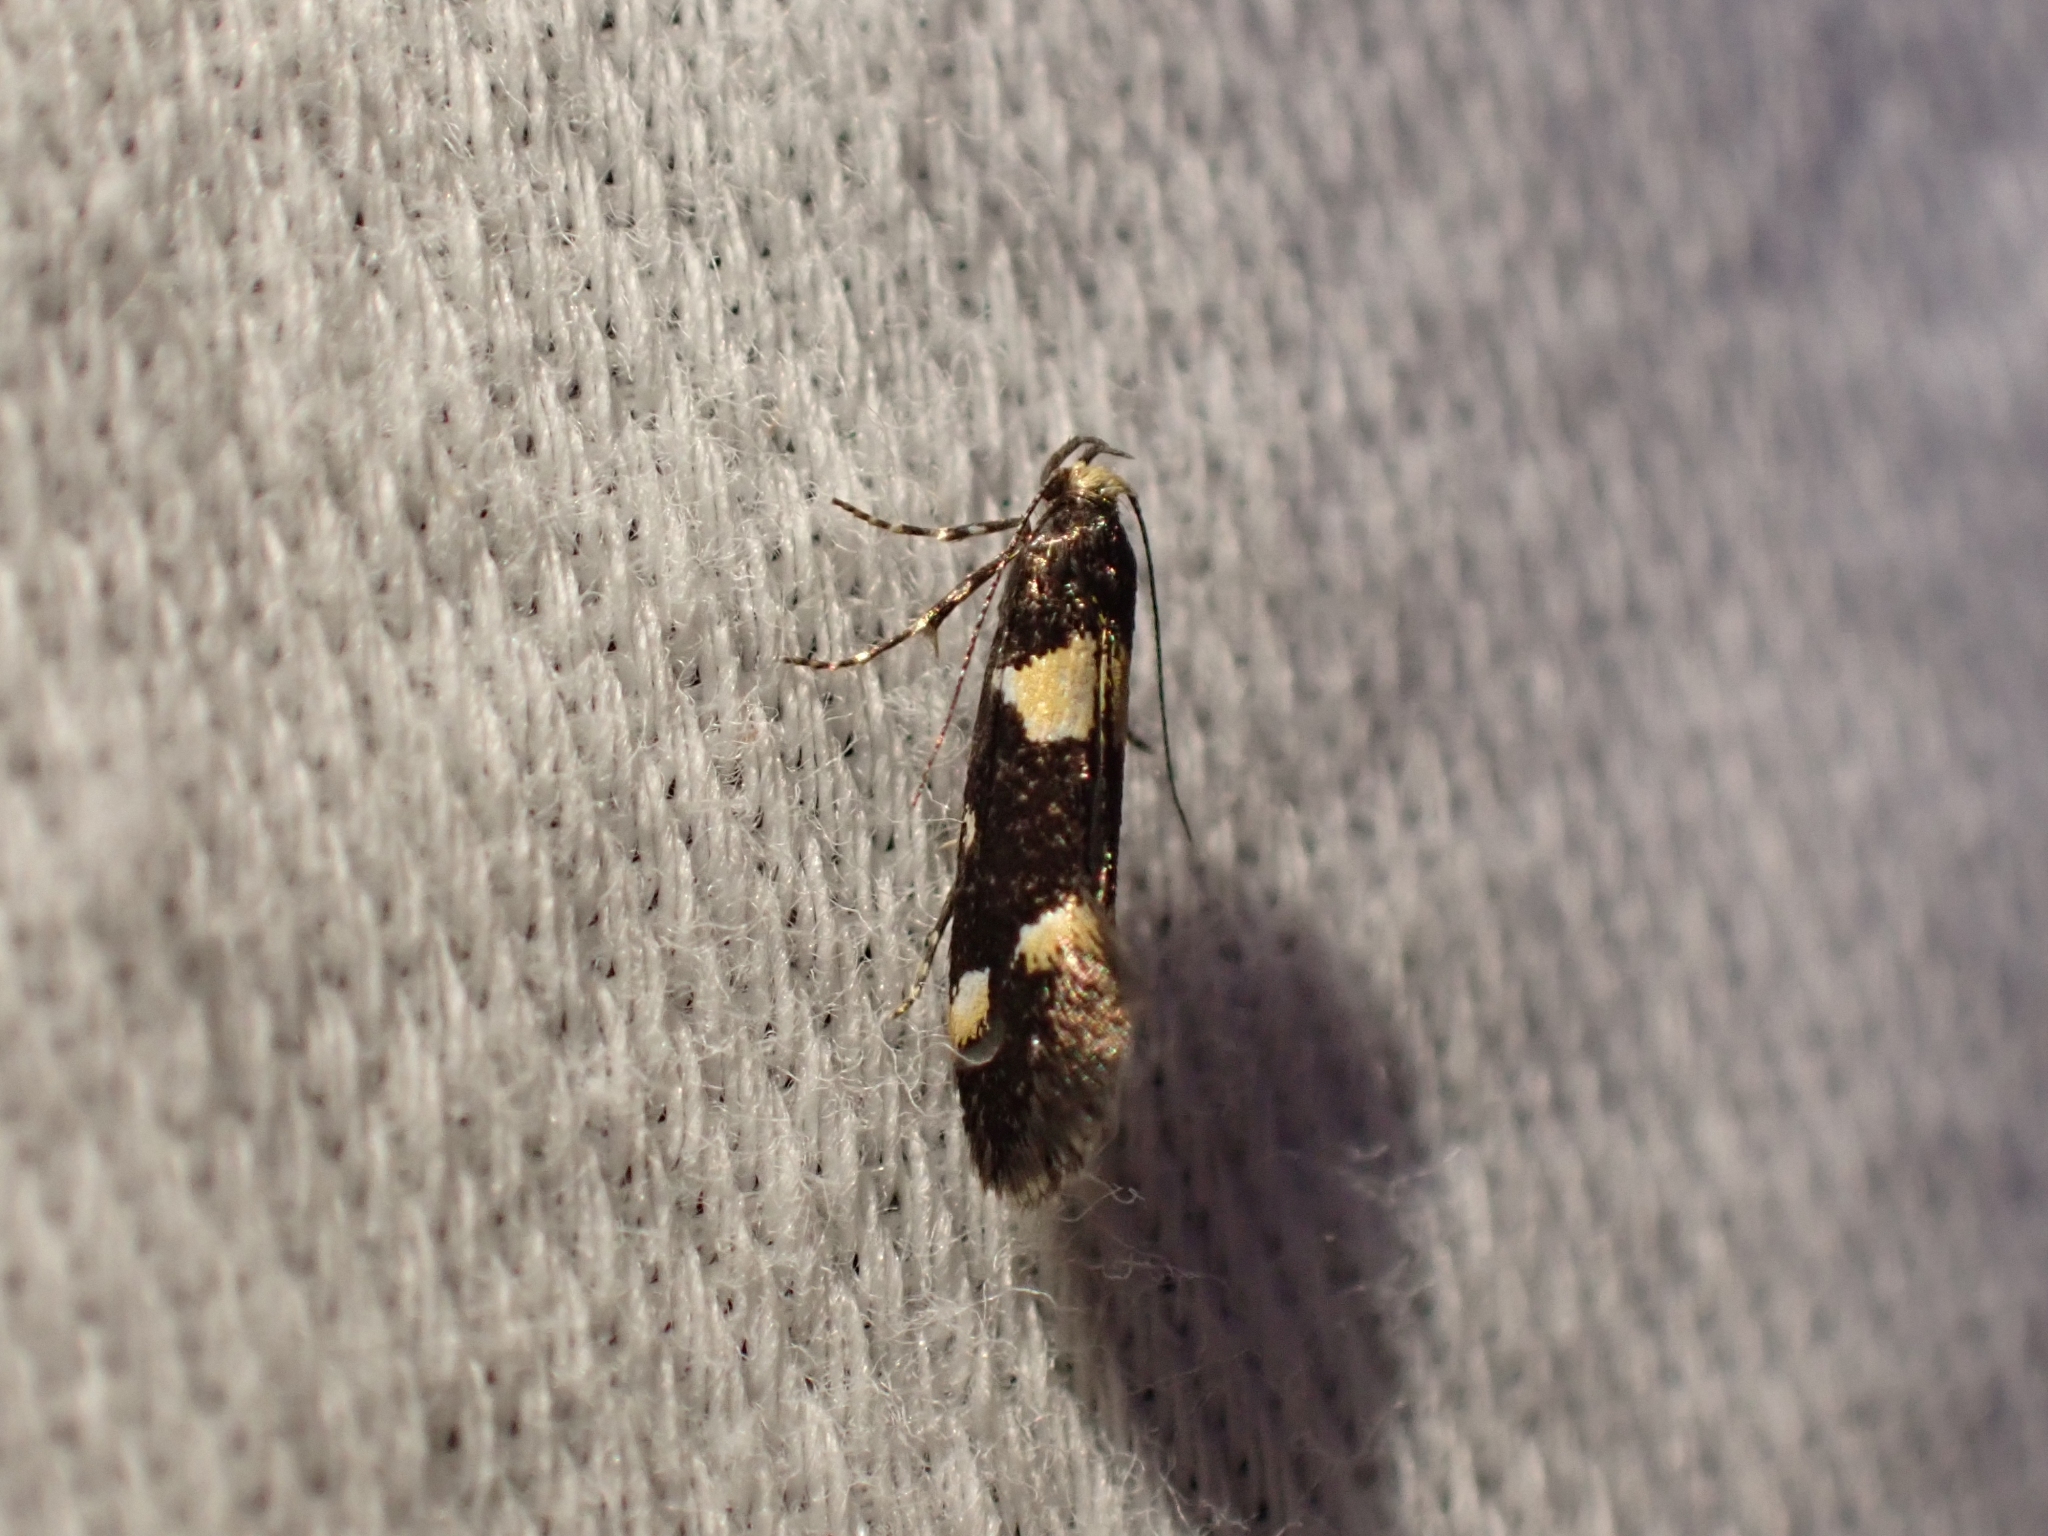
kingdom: Animalia
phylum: Arthropoda
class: Insecta
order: Lepidoptera
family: Oecophoridae
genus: Brymblia
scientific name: Brymblia quadrimaculella
